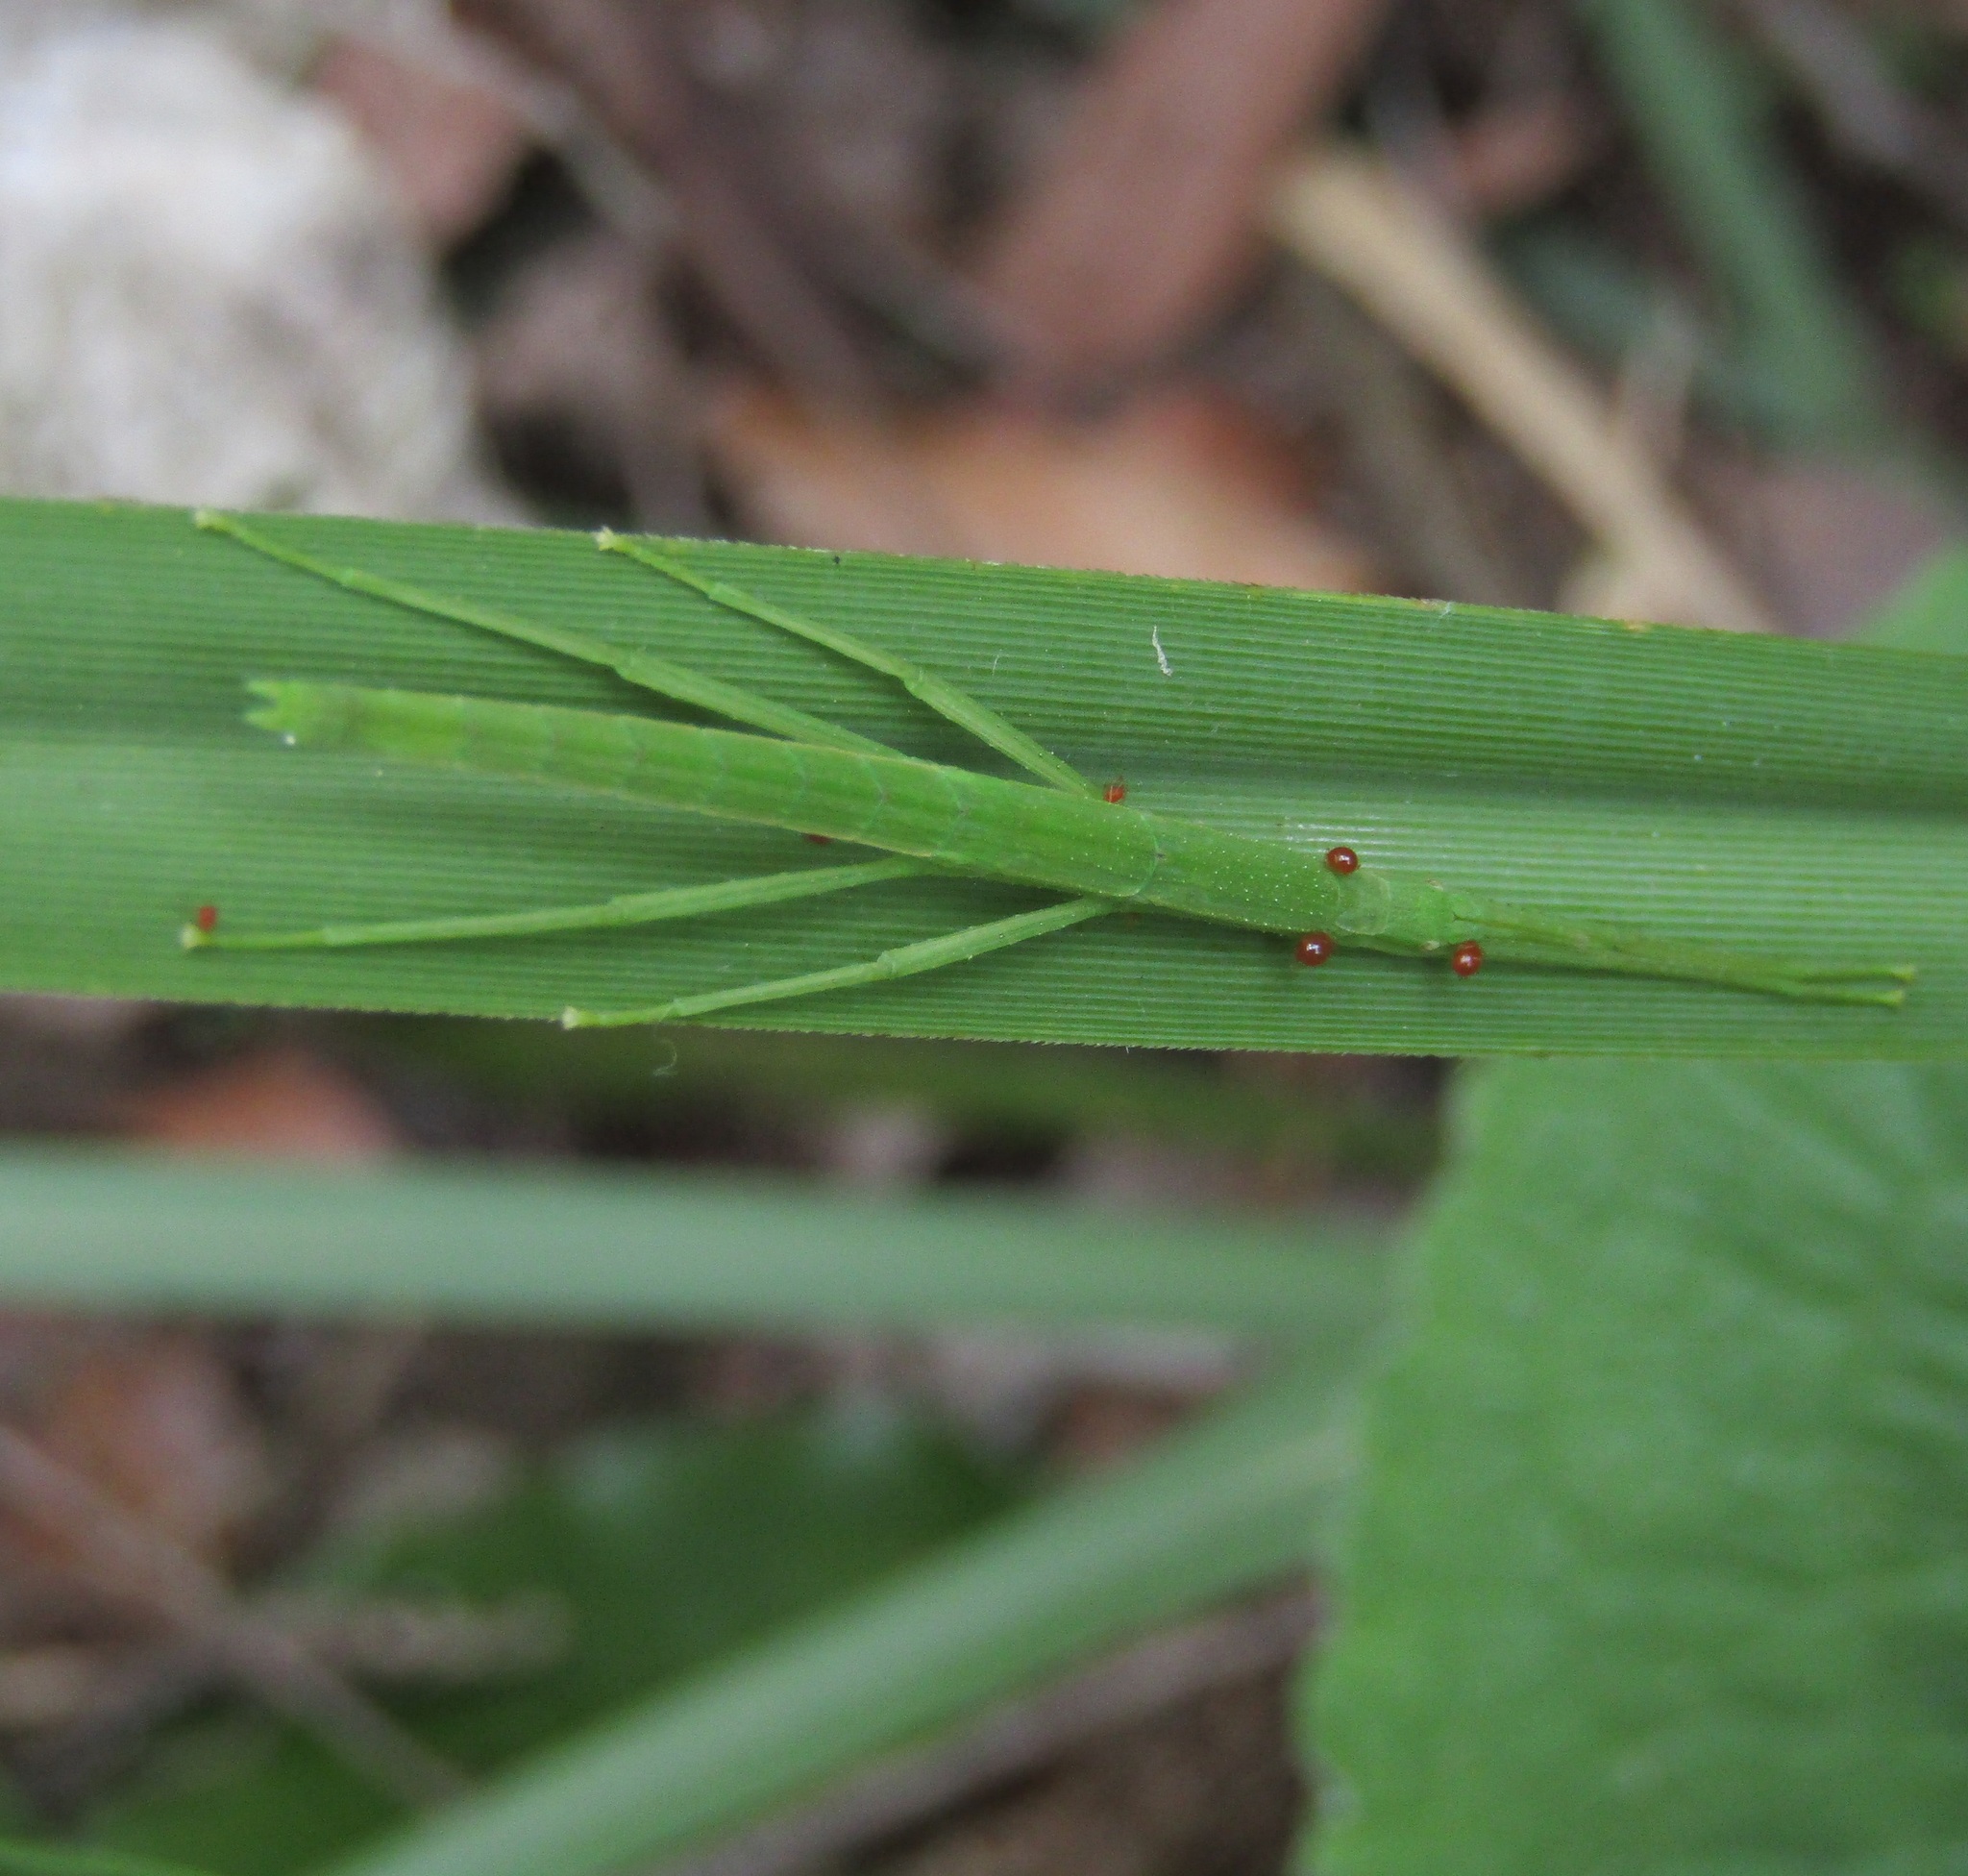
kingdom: Animalia
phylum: Arthropoda
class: Insecta
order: Phasmida
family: Phasmatidae
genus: Tectarchus
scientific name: Tectarchus huttoni
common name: The common ridge-backed stick insect
